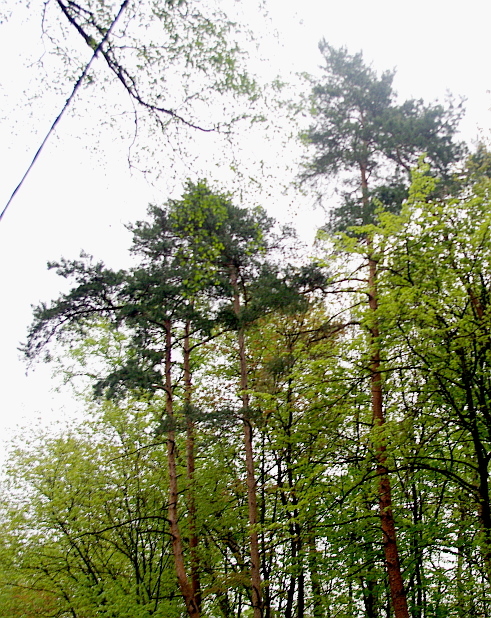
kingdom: Plantae
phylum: Tracheophyta
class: Pinopsida
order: Pinales
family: Pinaceae
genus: Pinus
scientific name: Pinus sylvestris
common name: Scots pine
